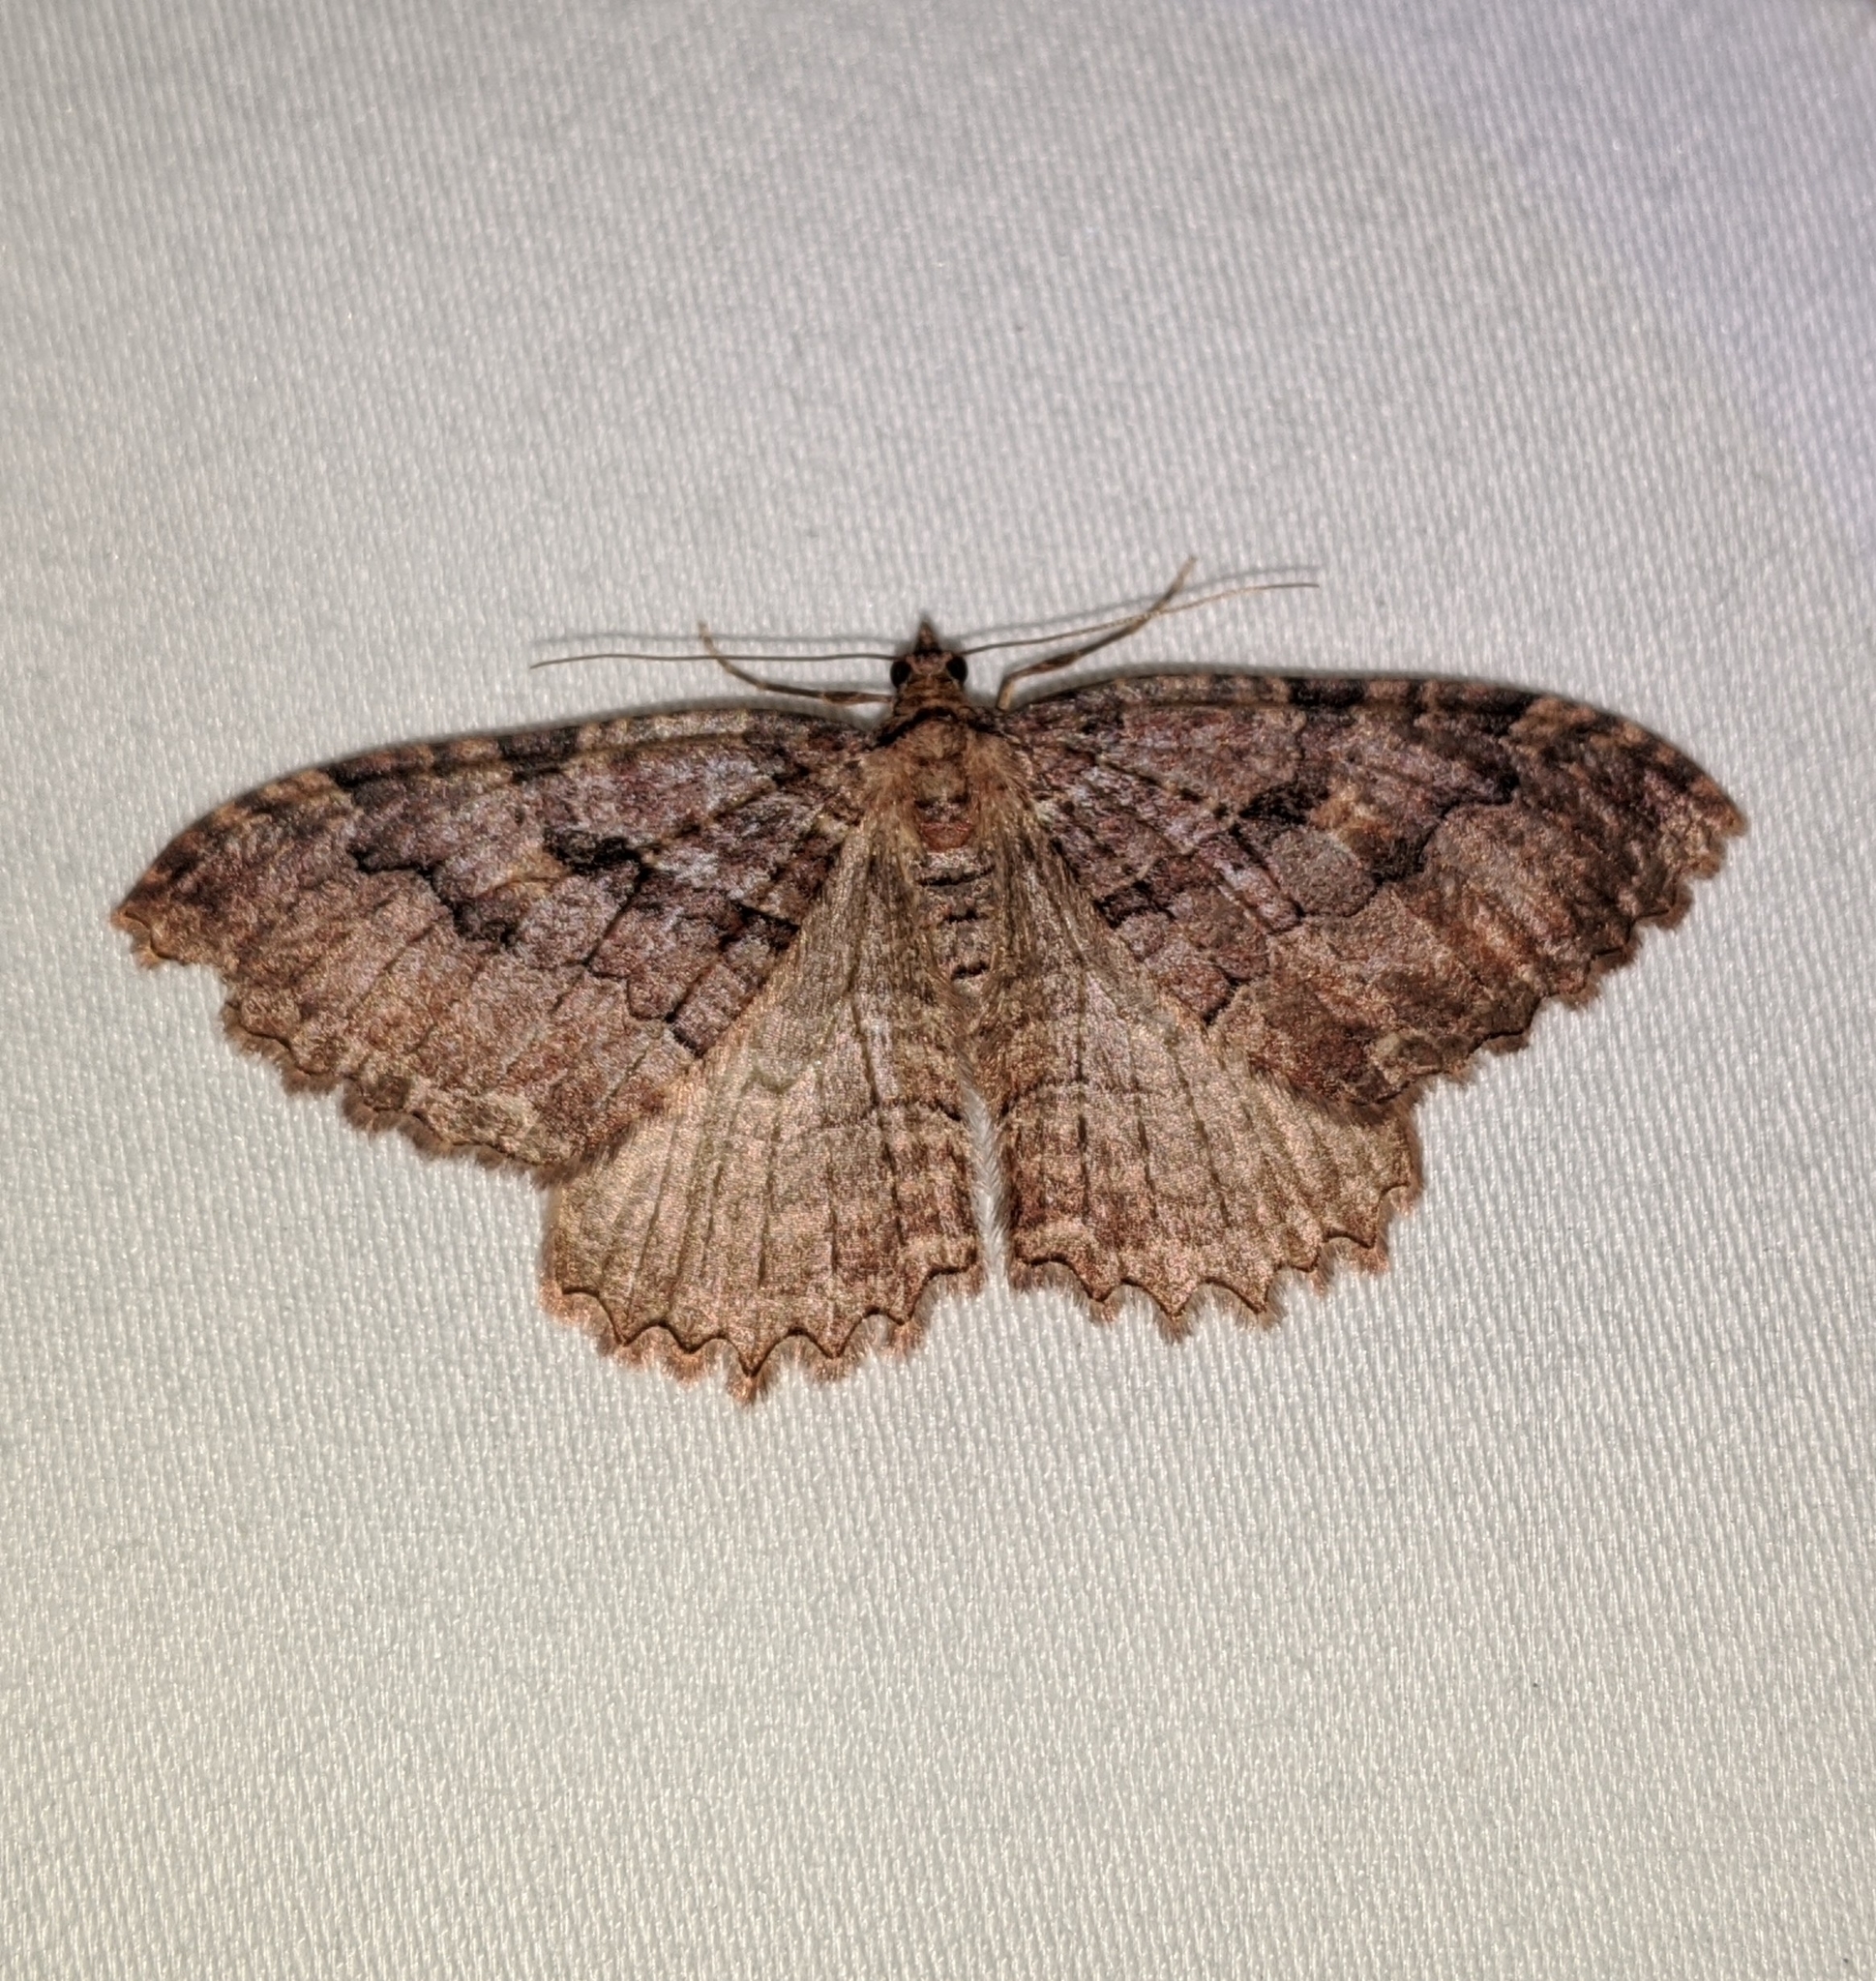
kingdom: Animalia
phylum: Arthropoda
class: Insecta
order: Lepidoptera
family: Geometridae
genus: Triphosa
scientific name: Triphosa haesitata
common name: Tissue moth
